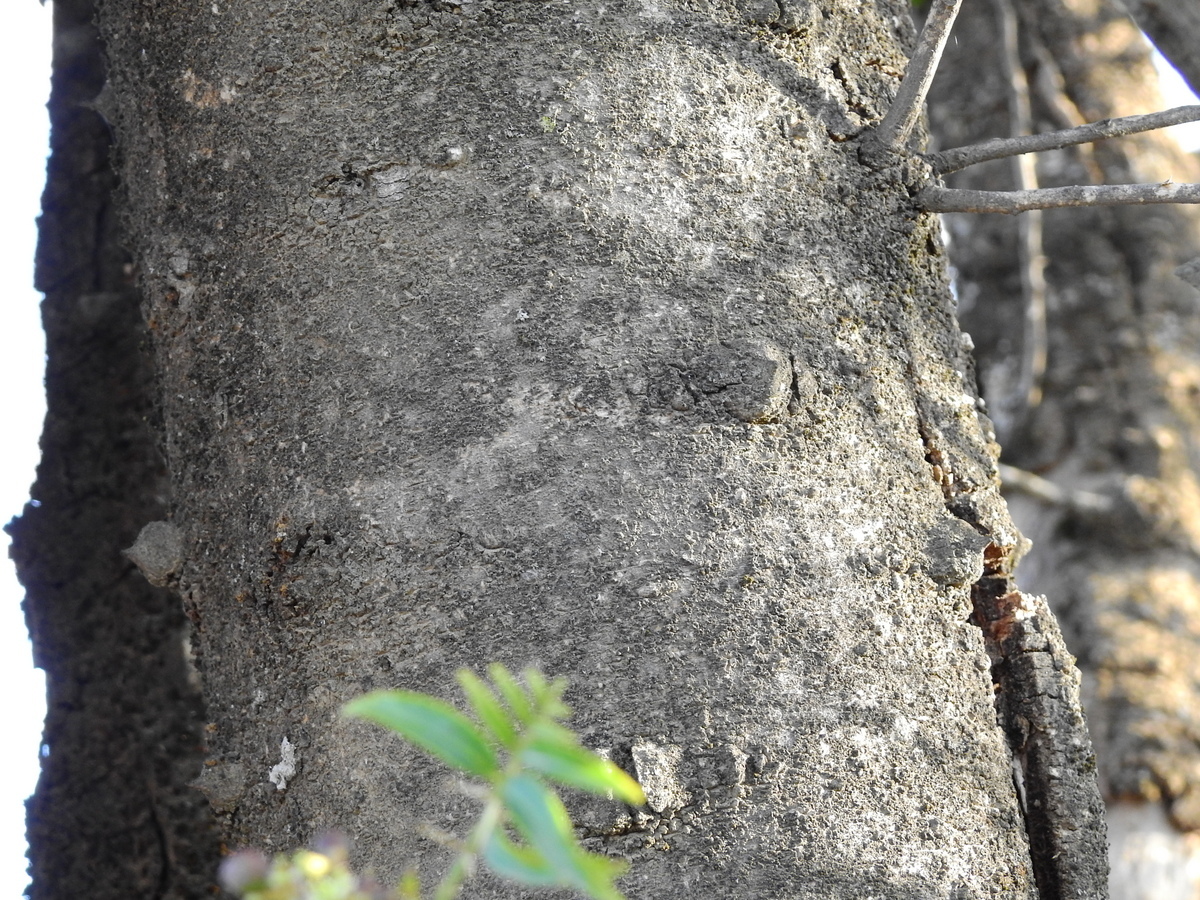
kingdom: Plantae
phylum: Tracheophyta
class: Magnoliopsida
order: Sapindales
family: Rutaceae
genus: Zanthoxylum
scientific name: Zanthoxylum coco
